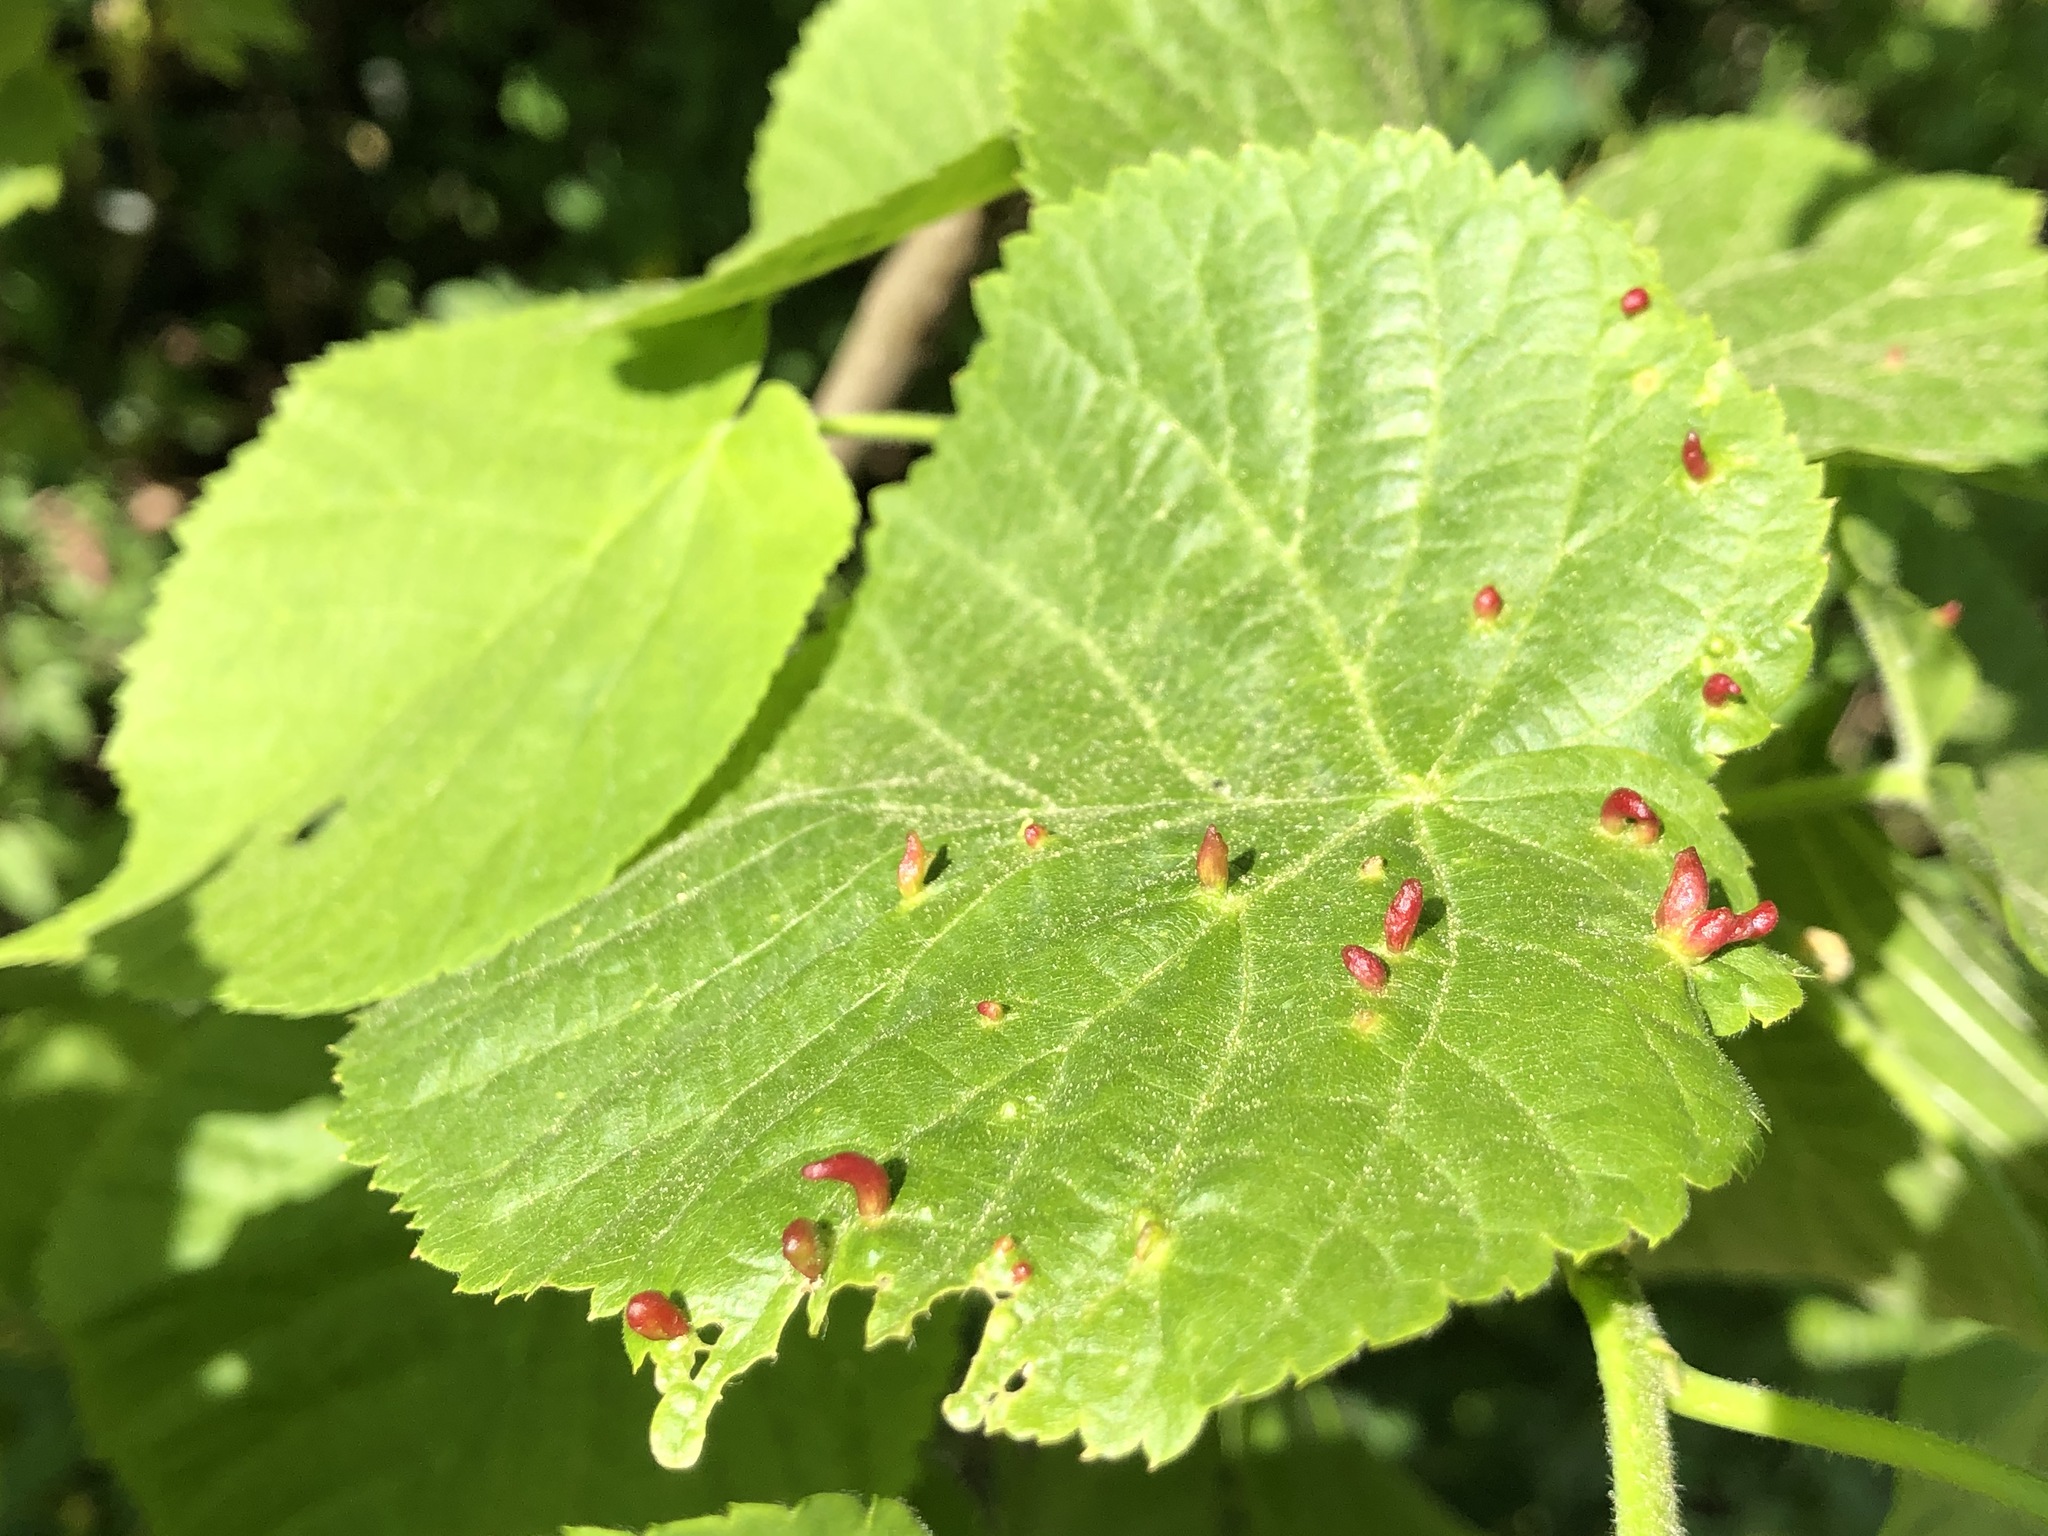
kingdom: Animalia
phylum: Arthropoda
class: Arachnida
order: Trombidiformes
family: Eriophyidae
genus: Eriophyes
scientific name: Eriophyes tiliae
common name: Red nail gall mite
